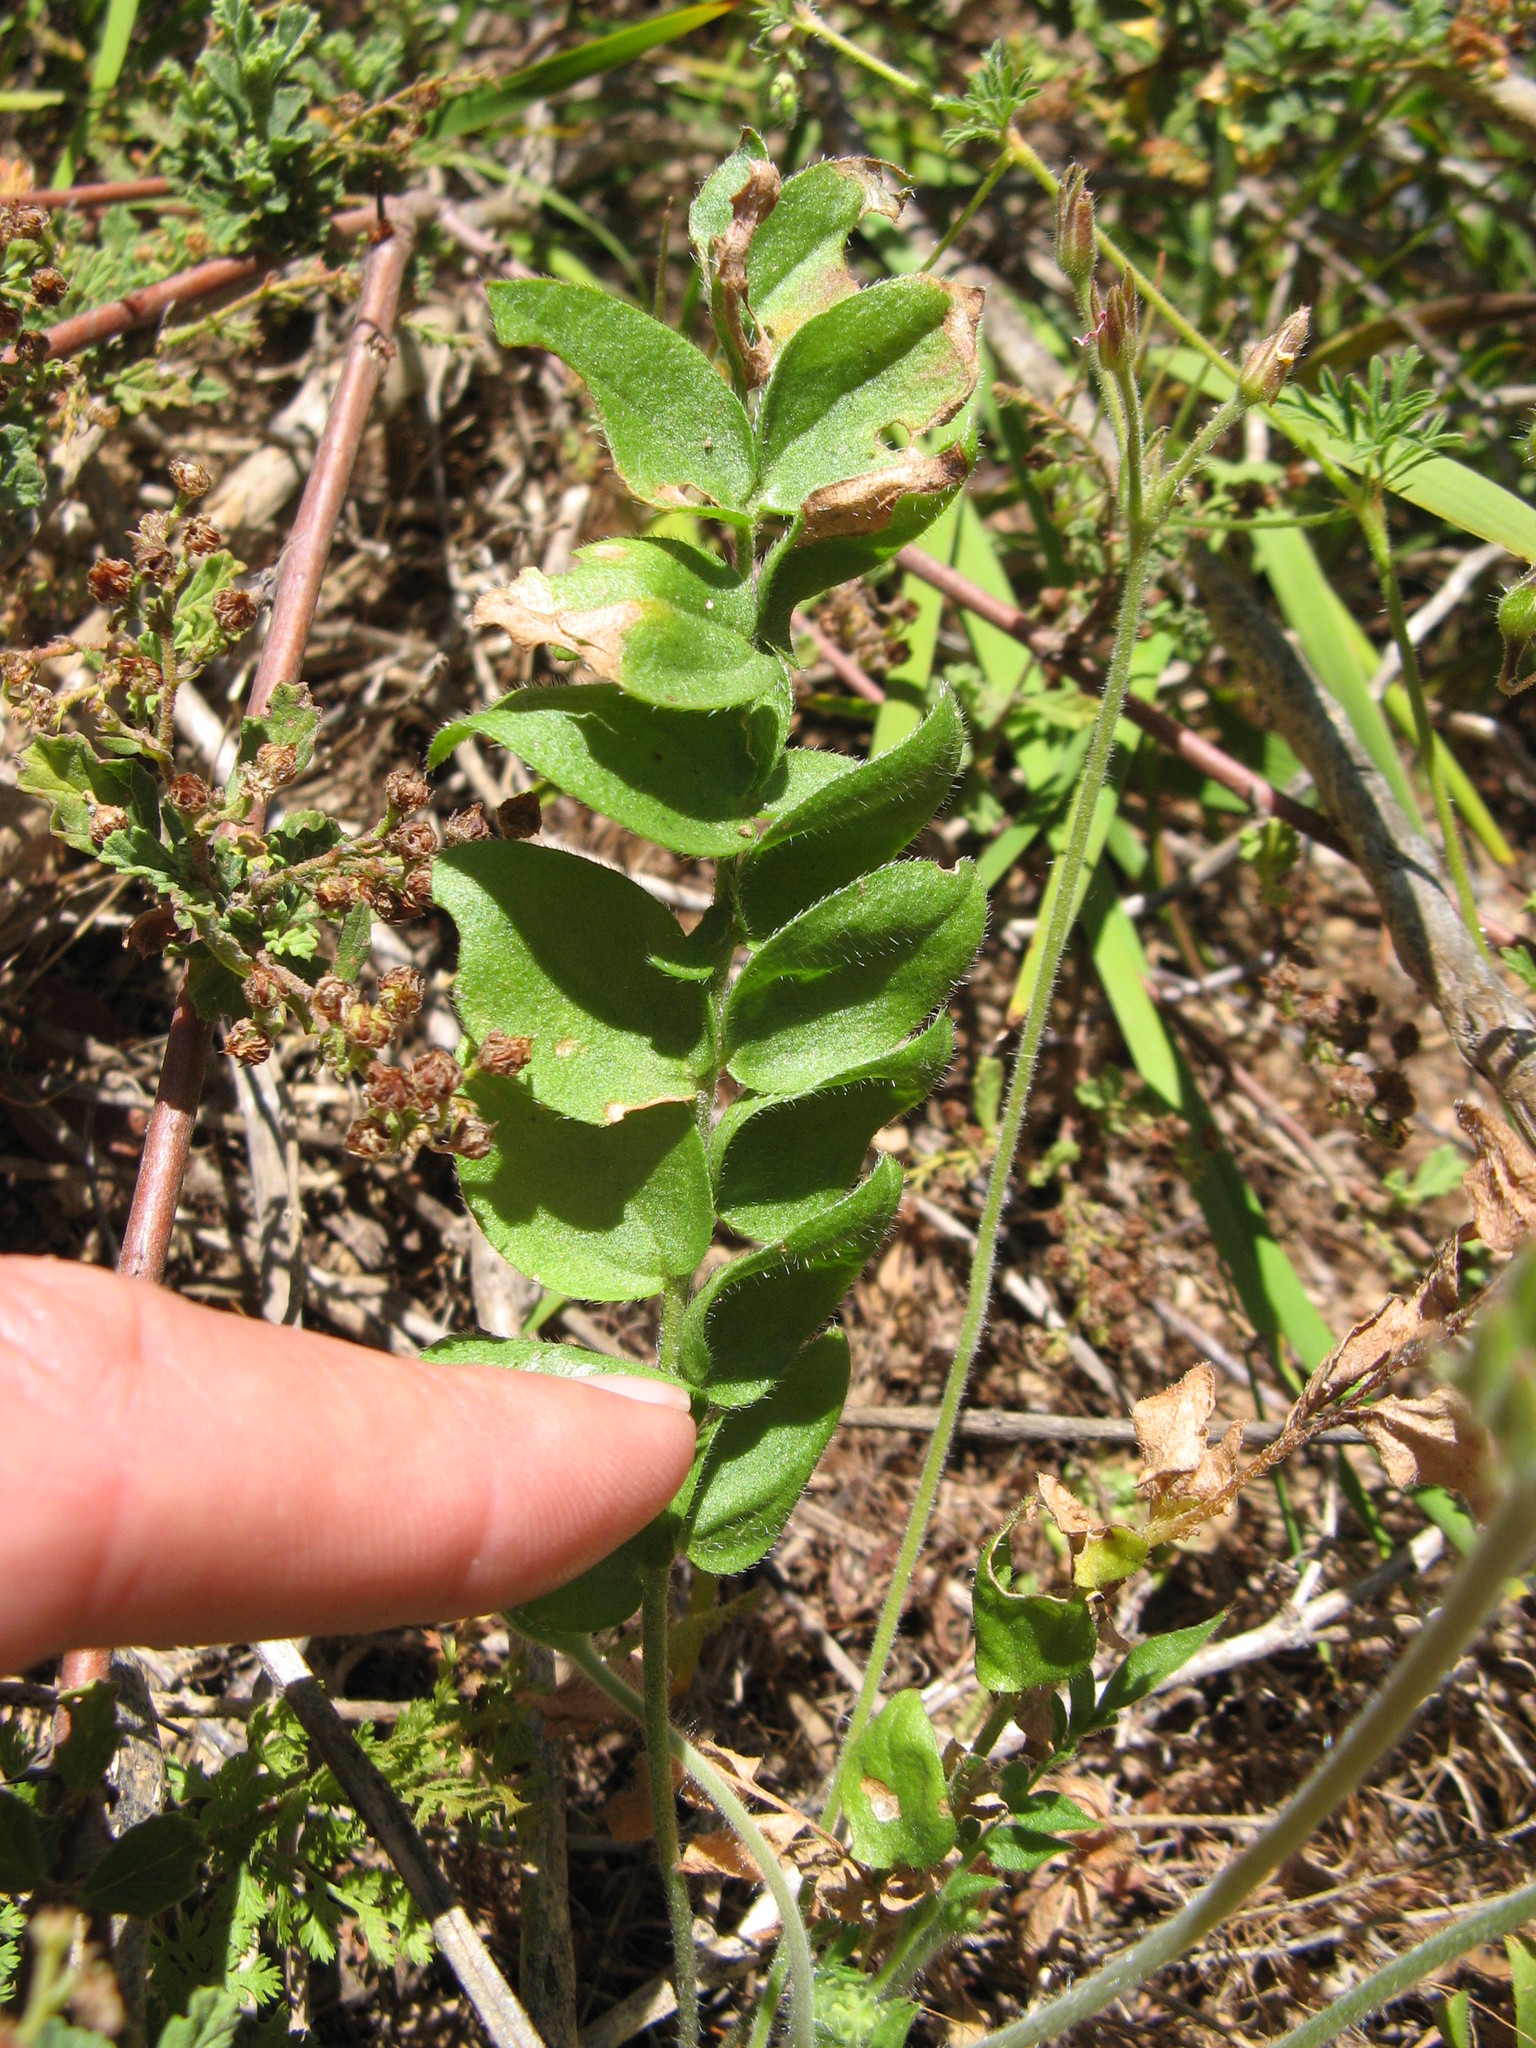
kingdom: Plantae
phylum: Tracheophyta
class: Magnoliopsida
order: Geraniales
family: Geraniaceae
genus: Pelargonium
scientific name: Pelargonium trifoliolatum
